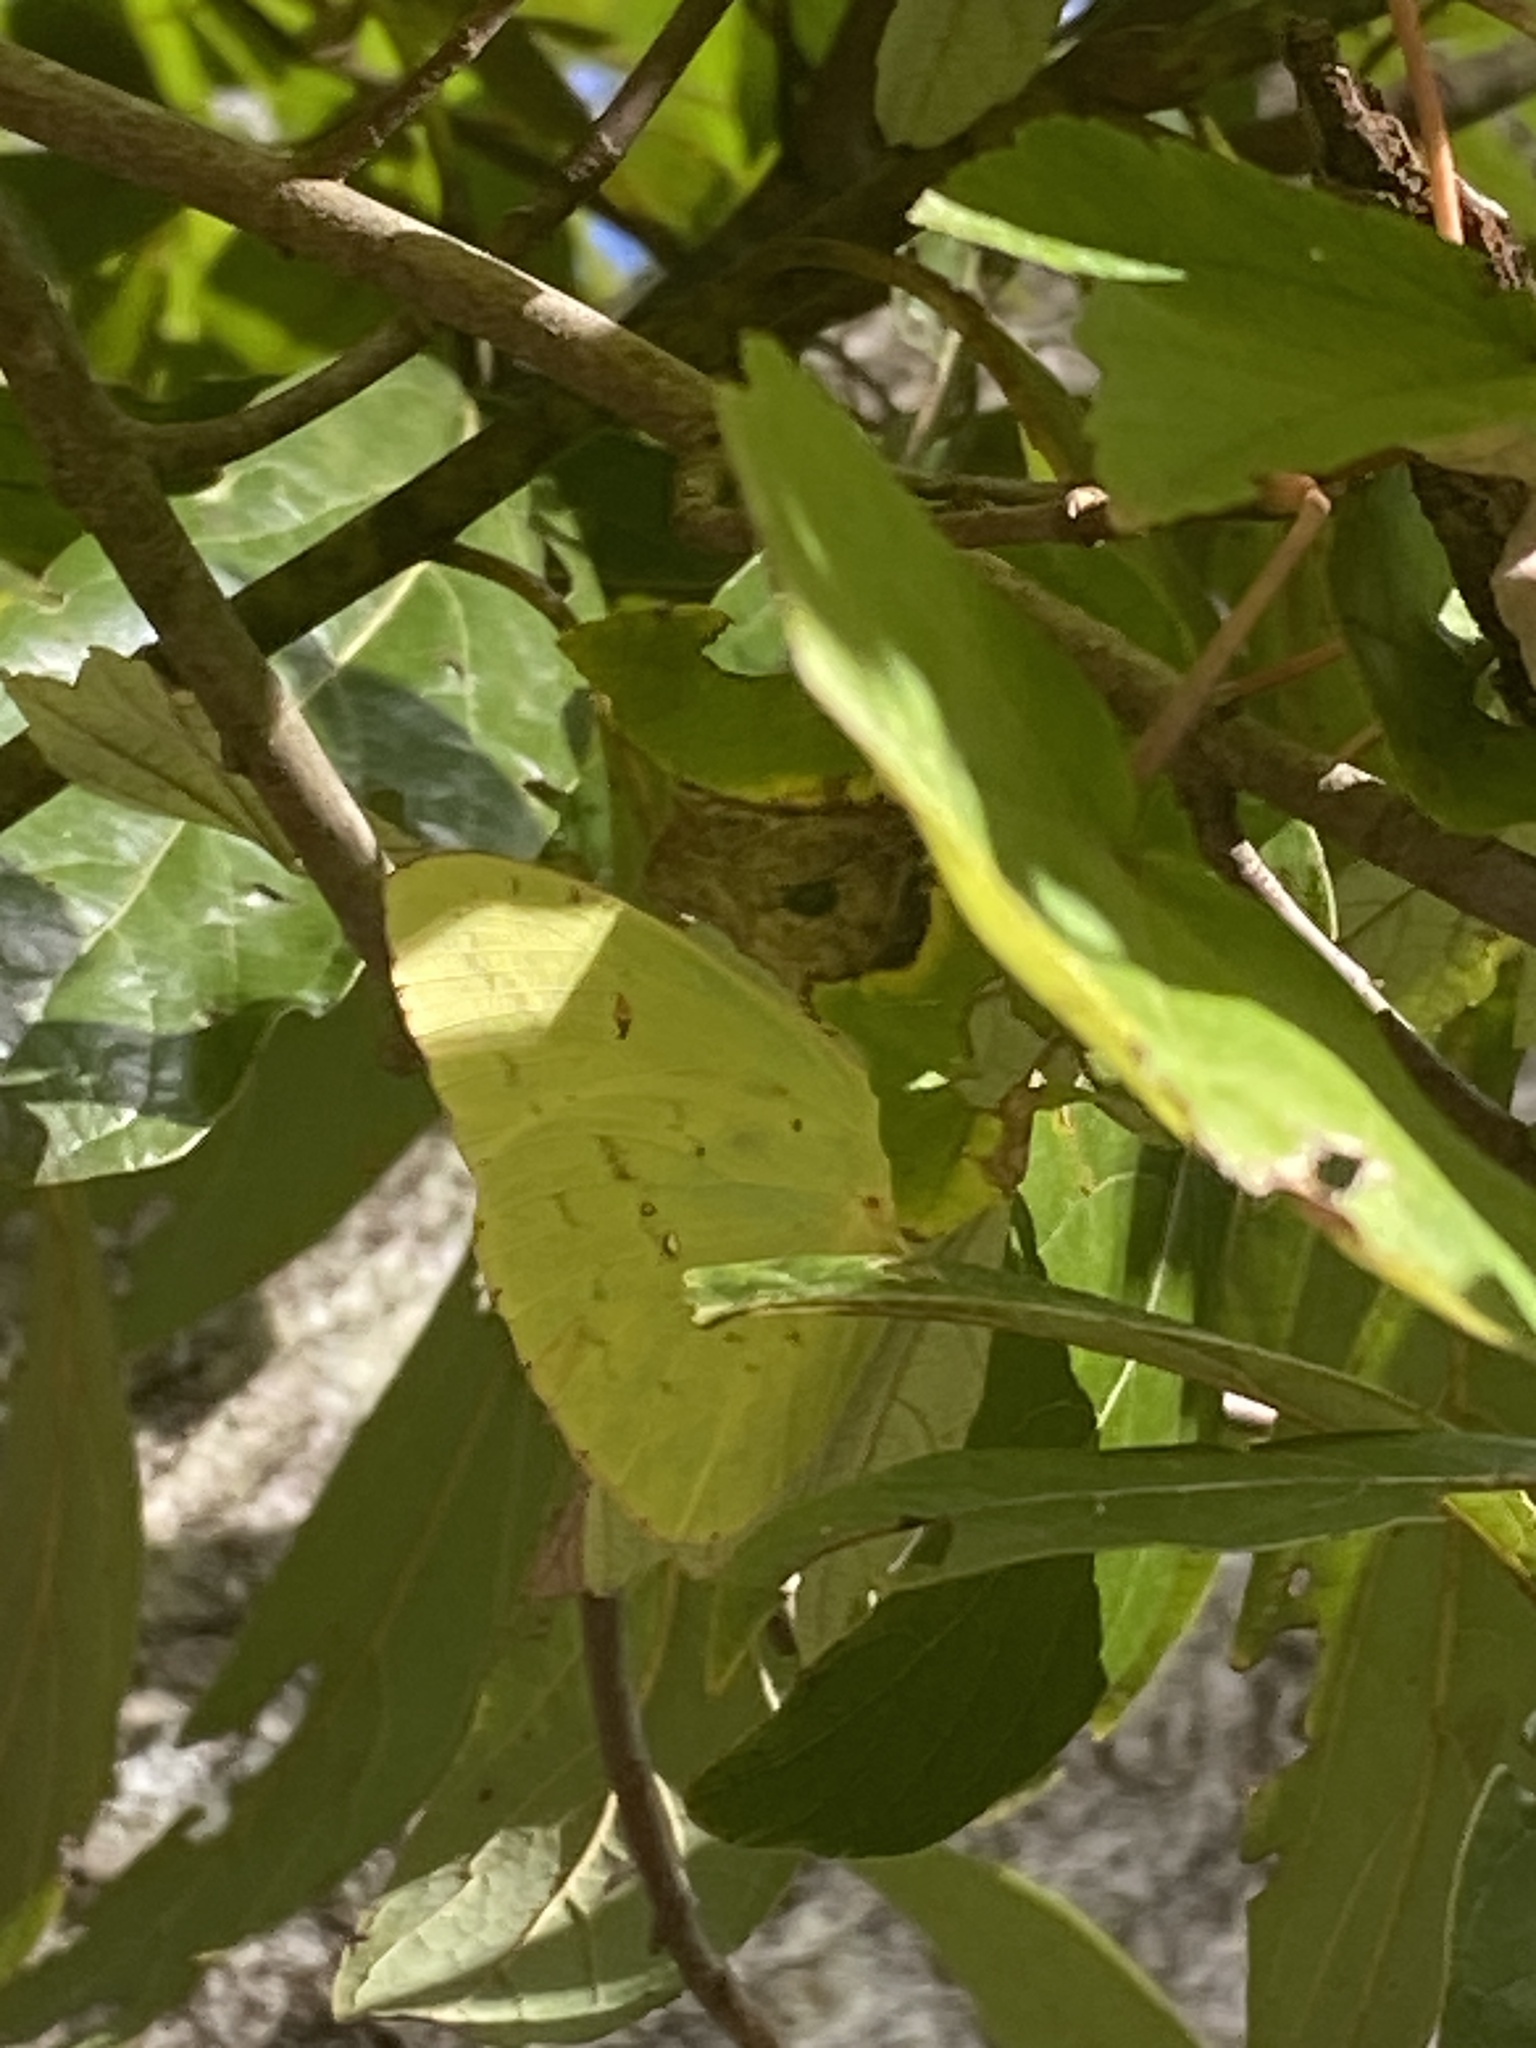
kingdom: Animalia
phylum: Arthropoda
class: Insecta
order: Lepidoptera
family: Pieridae
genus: Phoebis
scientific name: Phoebis sennae
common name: Cloudless sulphur
